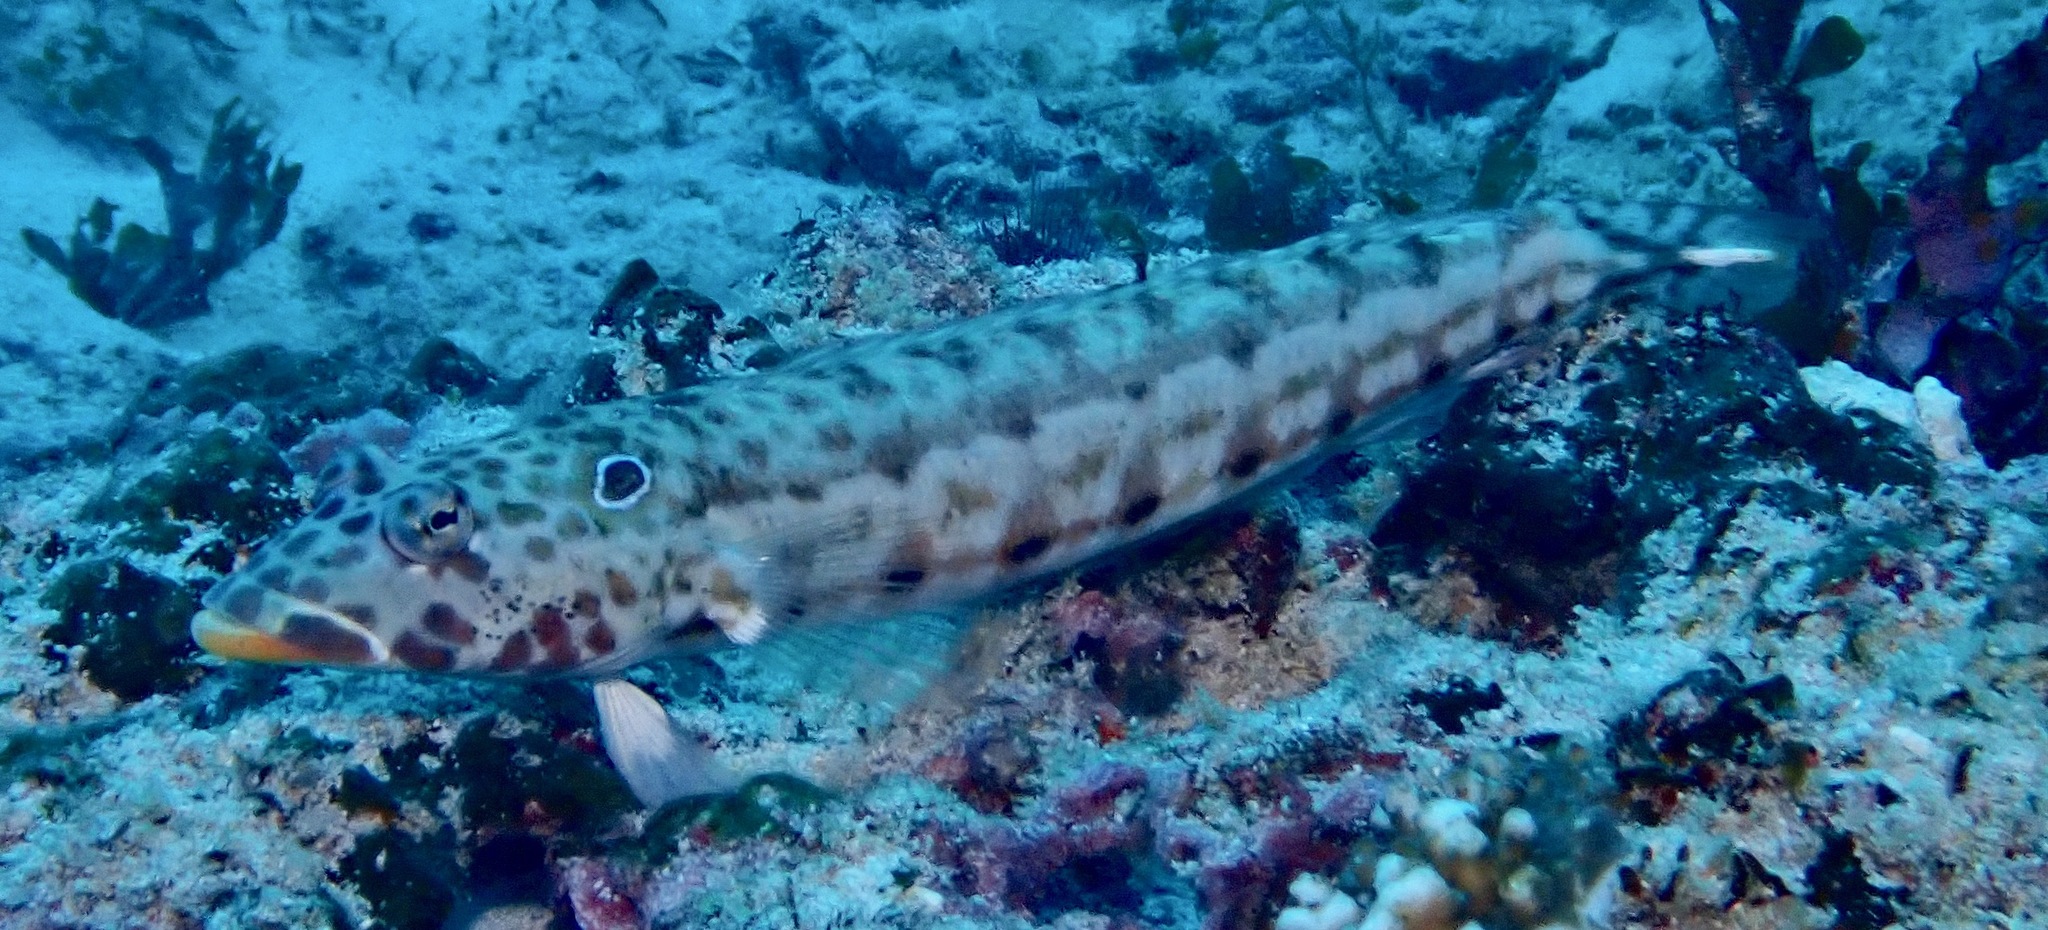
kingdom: Animalia
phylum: Chordata
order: Perciformes
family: Pinguipedidae
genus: Parapercis
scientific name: Parapercis clathrata
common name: Latticed sandperch
